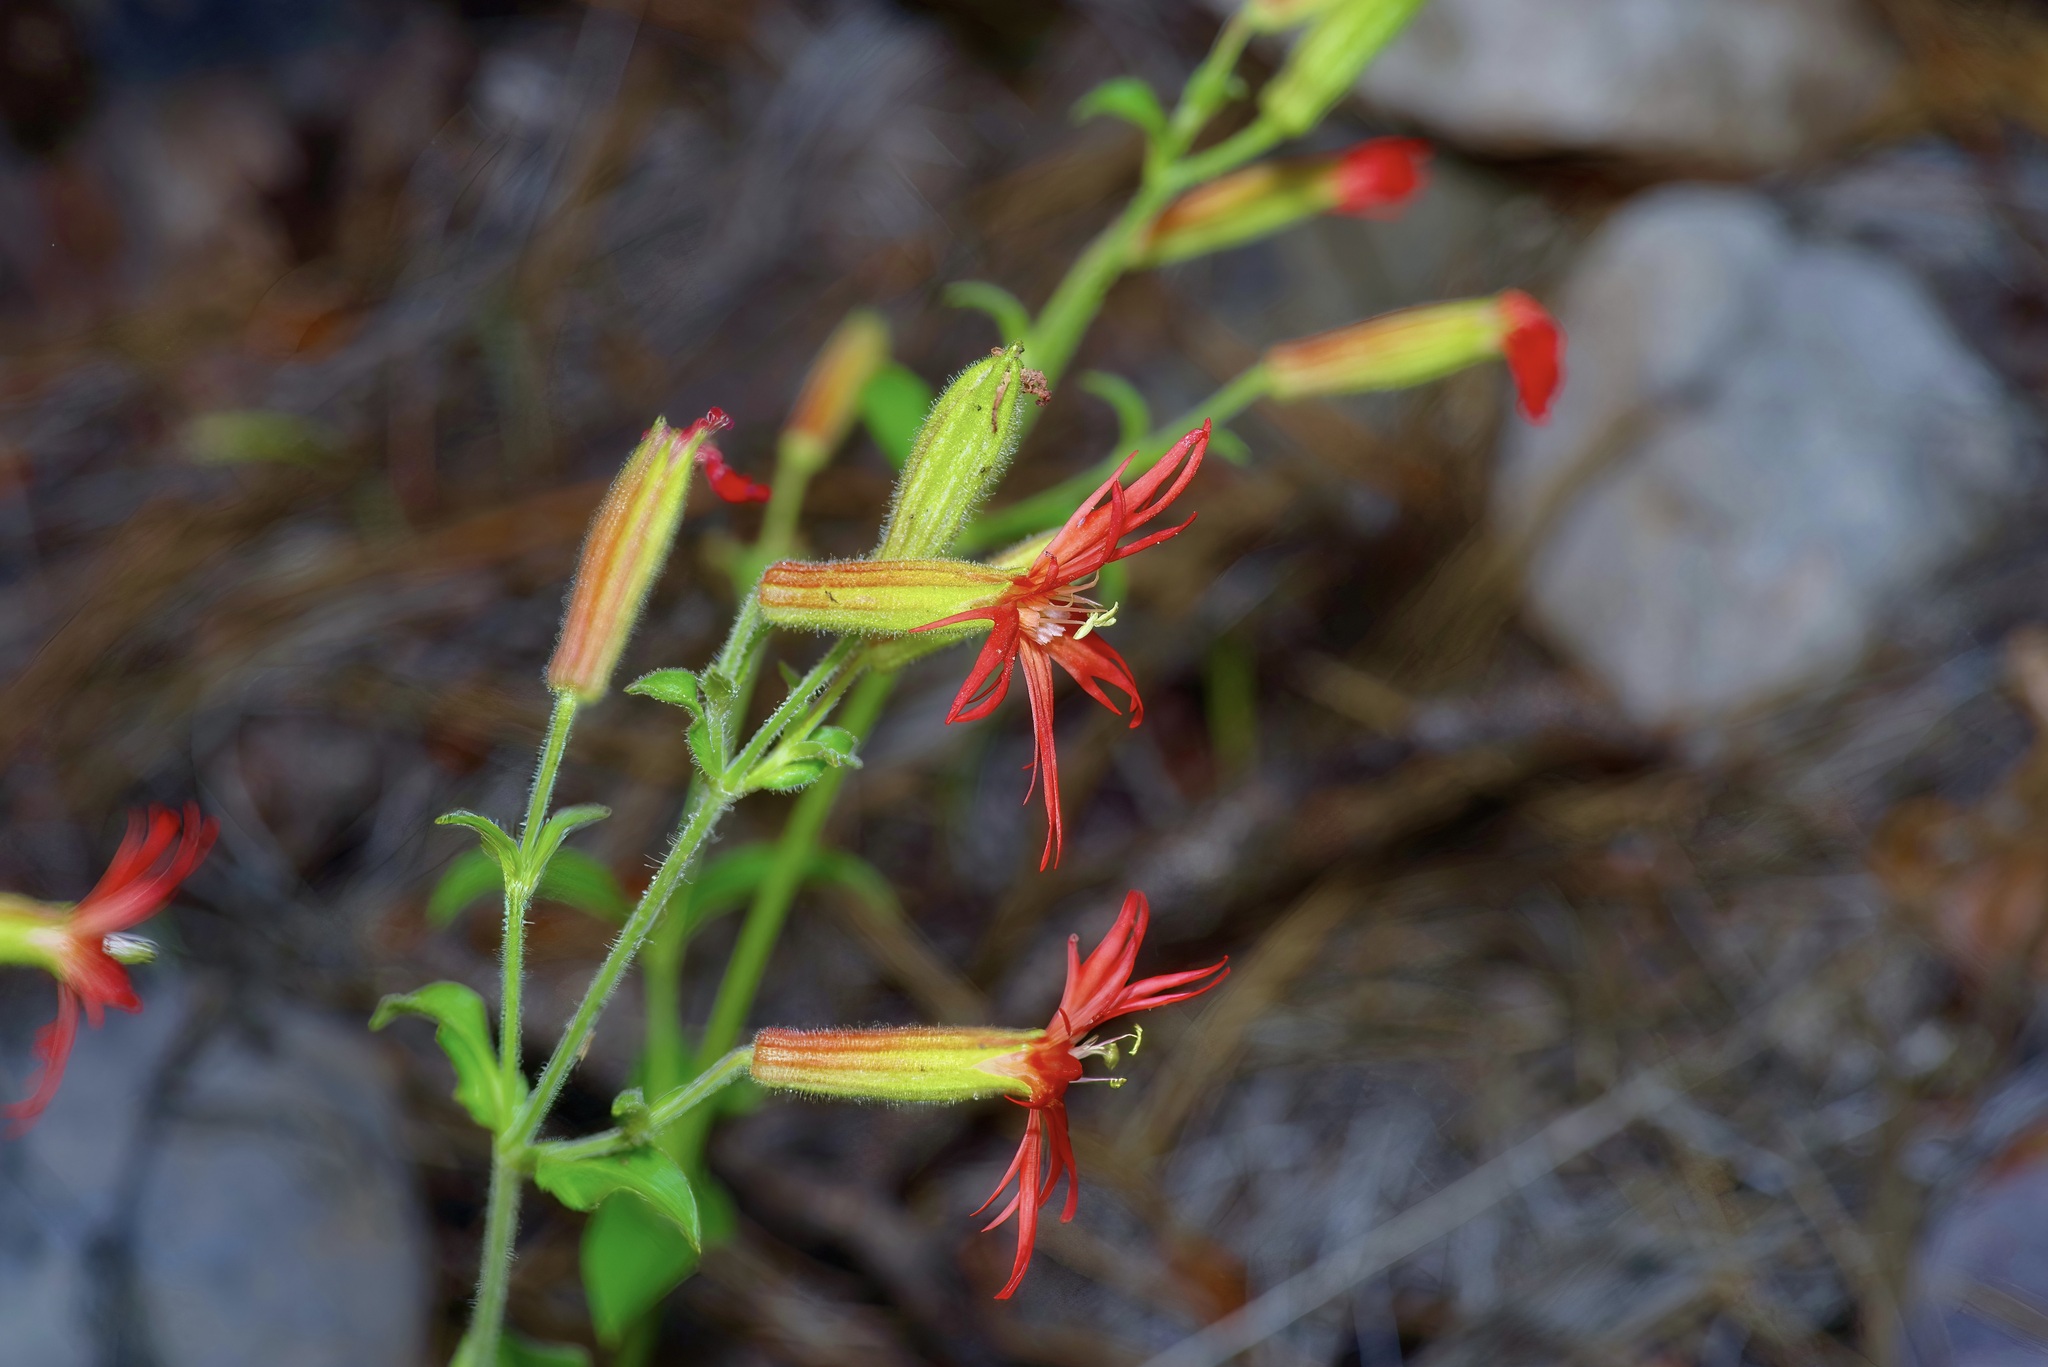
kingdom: Plantae
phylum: Tracheophyta
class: Magnoliopsida
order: Caryophyllales
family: Caryophyllaceae
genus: Silene
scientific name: Silene laciniata
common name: Indian-pink
